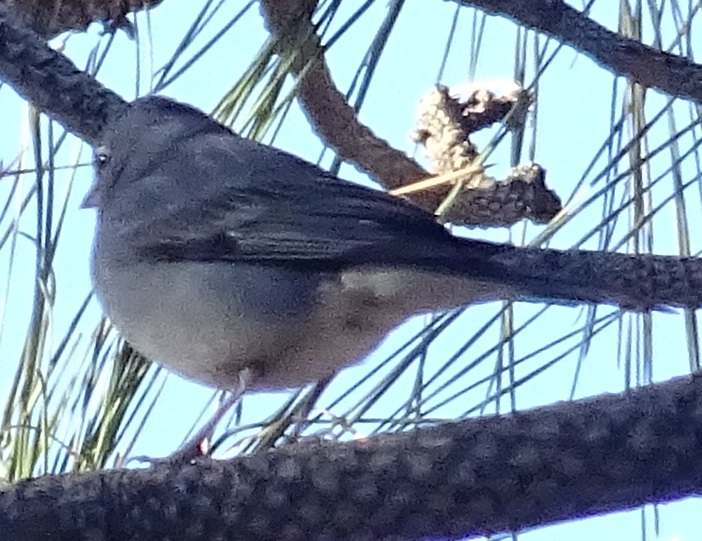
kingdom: Animalia
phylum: Chordata
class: Aves
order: Passeriformes
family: Fringillidae
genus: Fringilla
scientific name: Fringilla teydea
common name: Blue chaffinch
